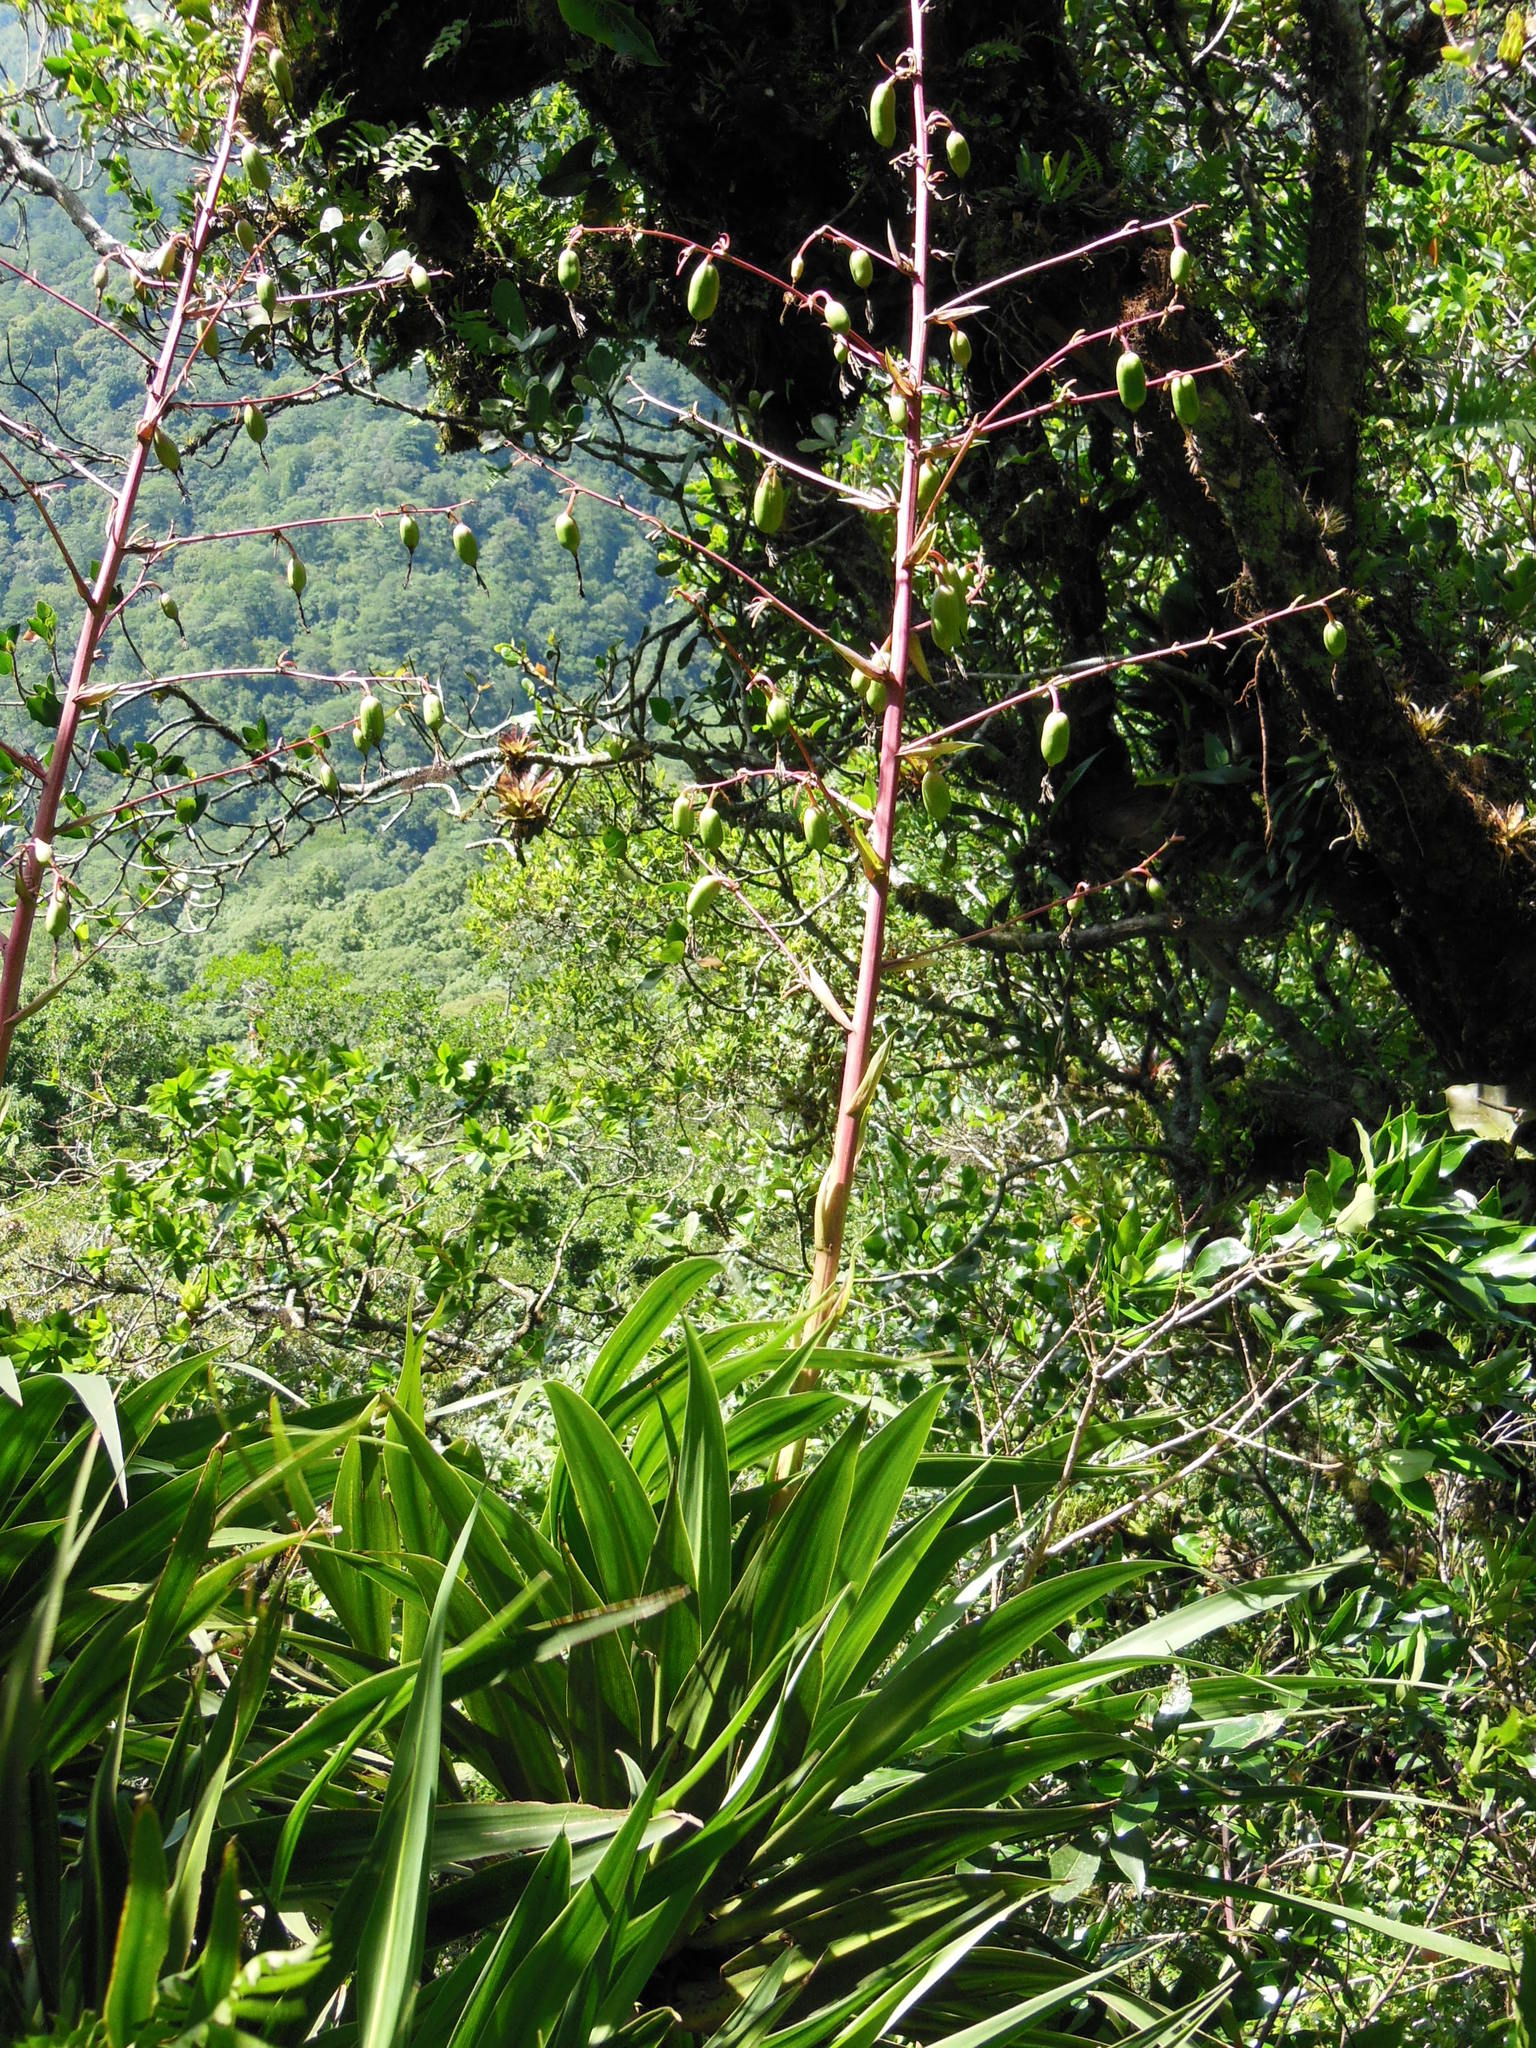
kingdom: Plantae
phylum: Tracheophyta
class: Liliopsida
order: Asparagales
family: Asparagaceae
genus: Beschorneria
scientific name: Beschorneria albiflora
